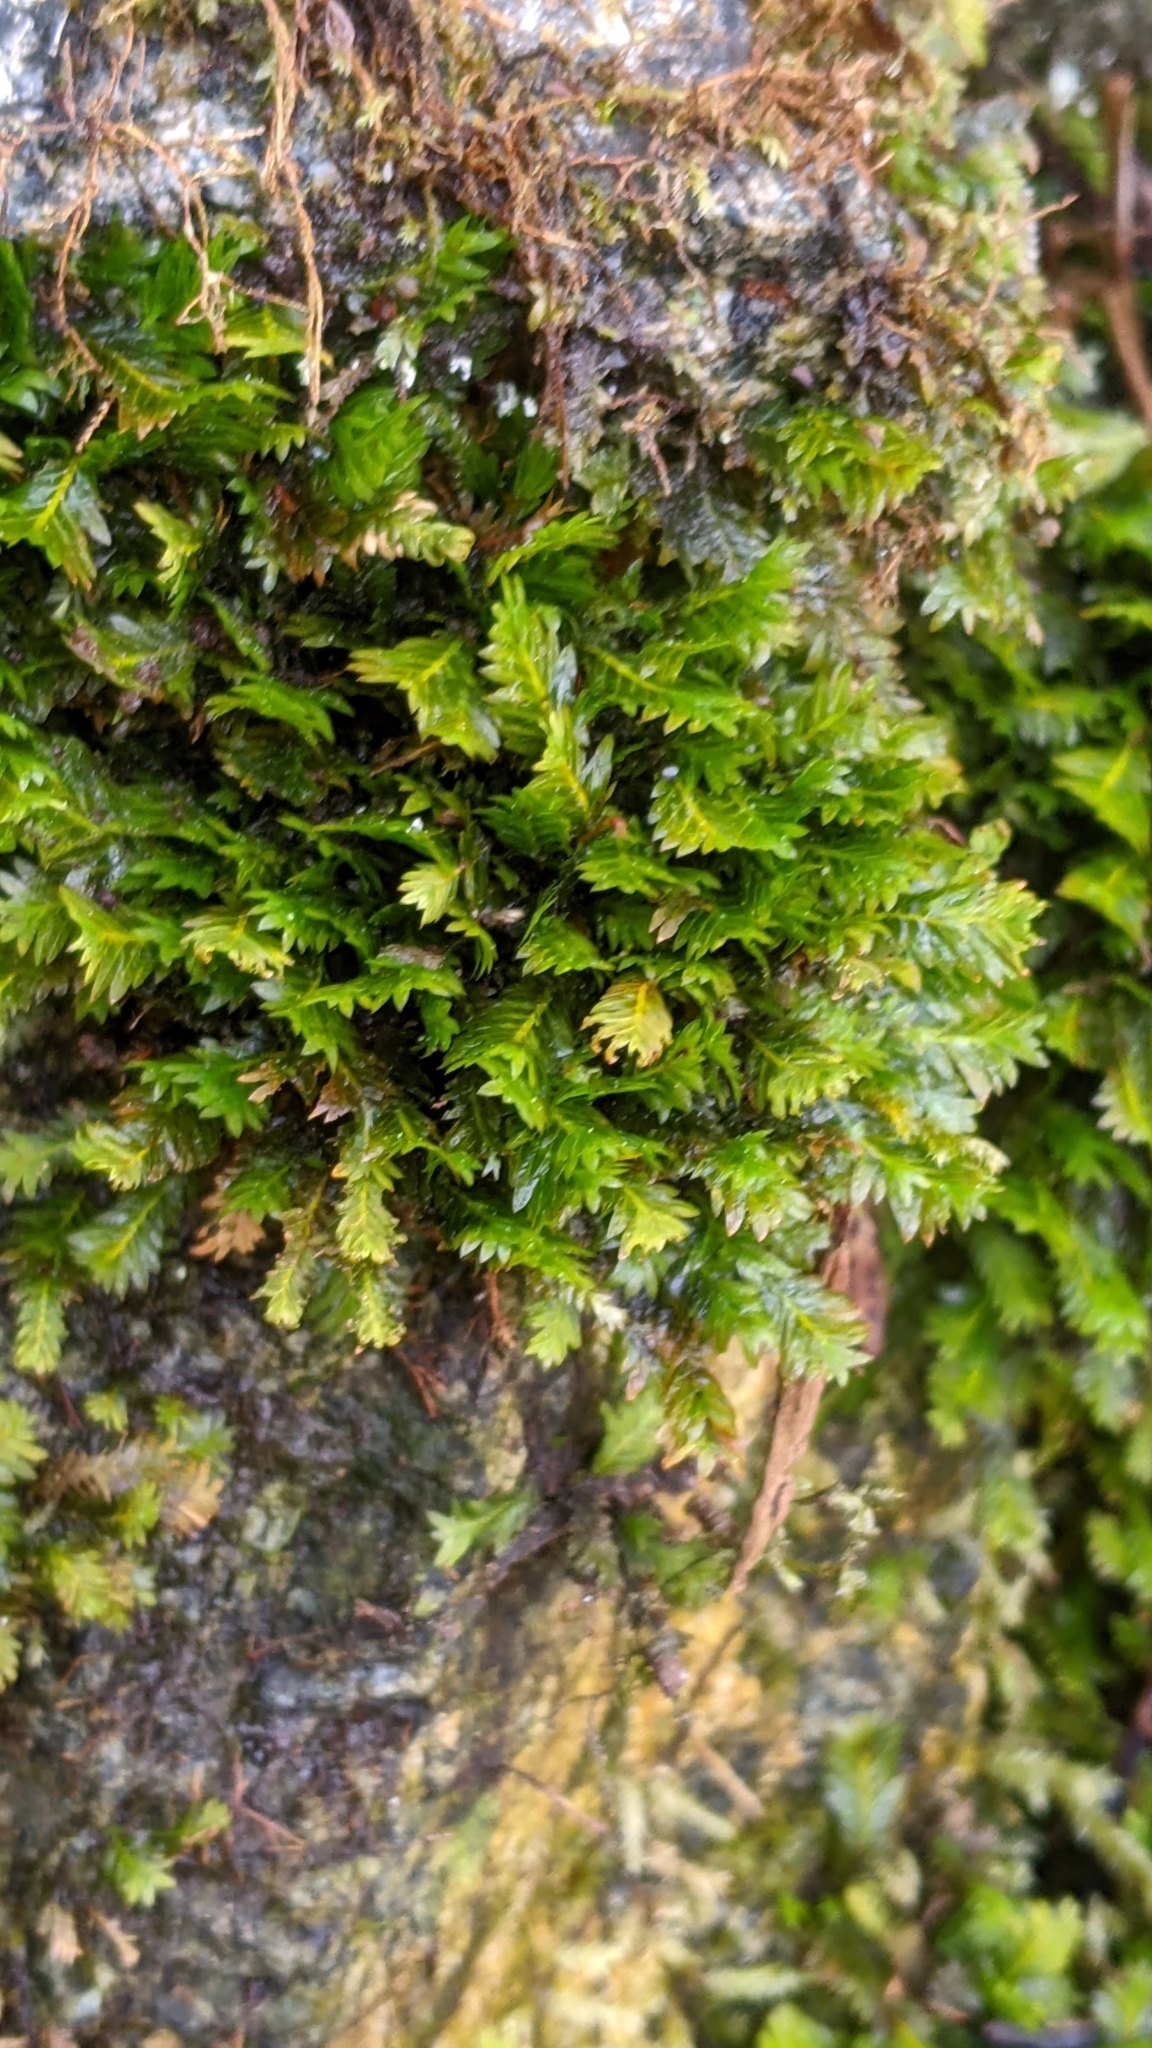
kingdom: Plantae
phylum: Bryophyta
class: Bryopsida
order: Dicranales
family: Fissidentaceae
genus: Fissidens
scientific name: Fissidens adianthoides
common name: Maidenhair pocket moss
